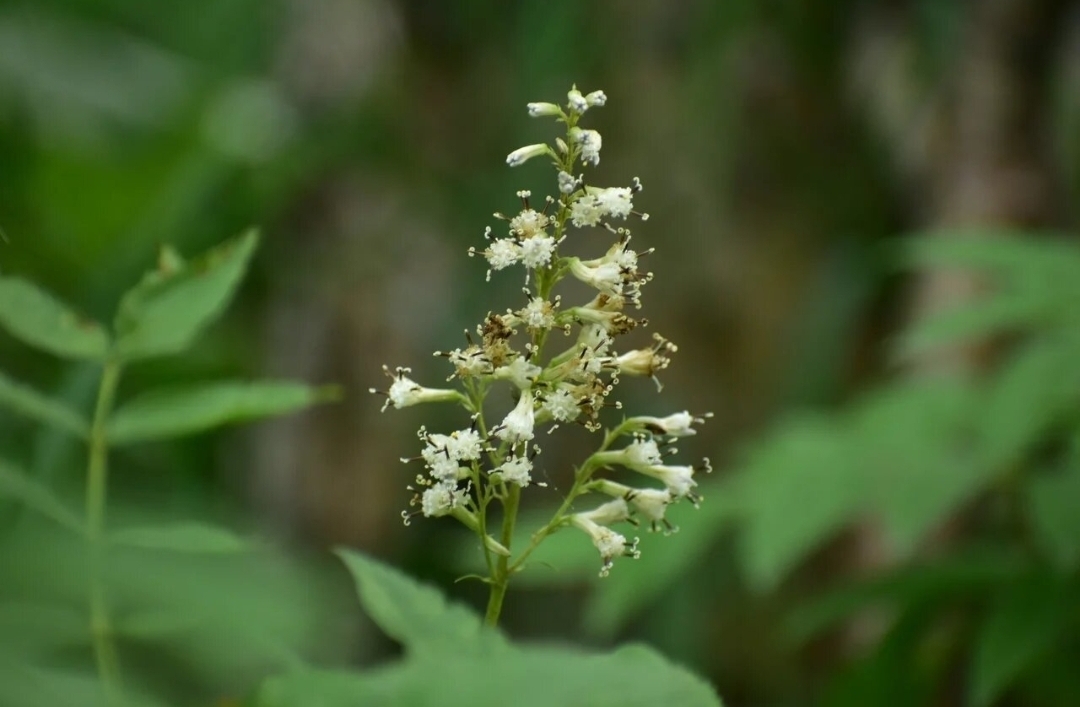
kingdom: Plantae
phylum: Tracheophyta
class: Magnoliopsida
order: Asterales
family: Asteraceae
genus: Parasenecio
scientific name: Parasenecio kamtschaticus
